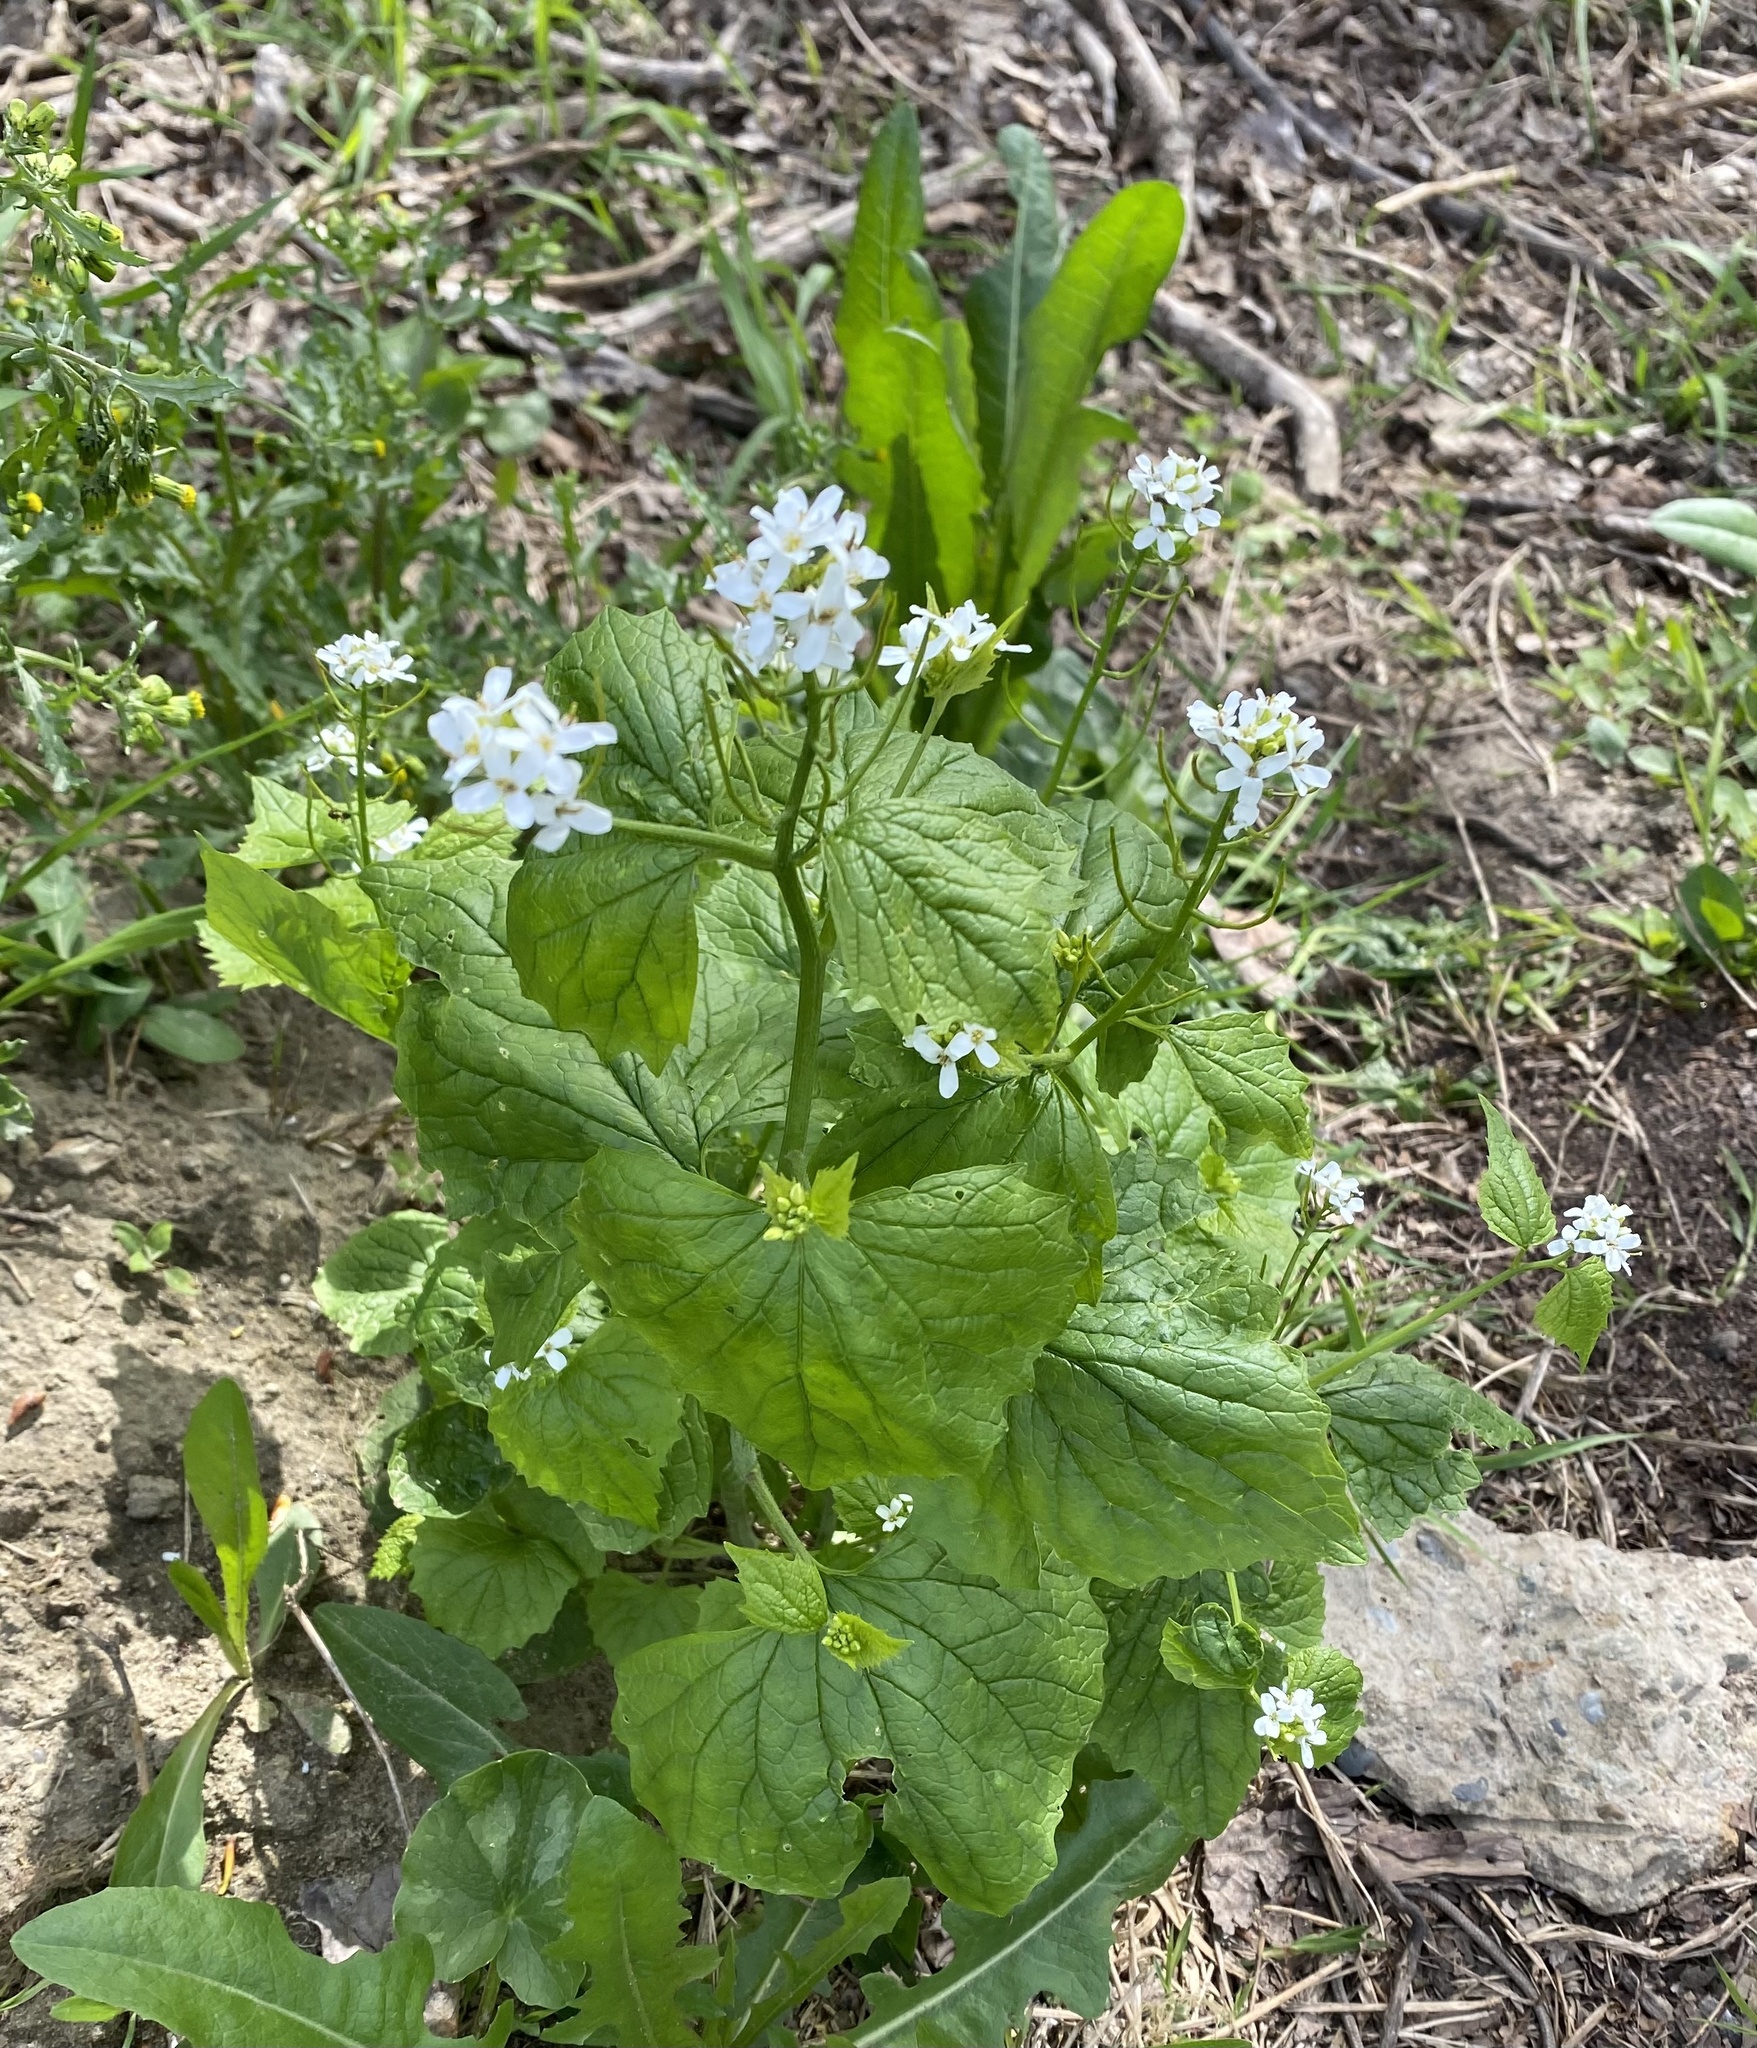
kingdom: Plantae
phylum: Tracheophyta
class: Magnoliopsida
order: Brassicales
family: Brassicaceae
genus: Alliaria
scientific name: Alliaria petiolata
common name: Garlic mustard
